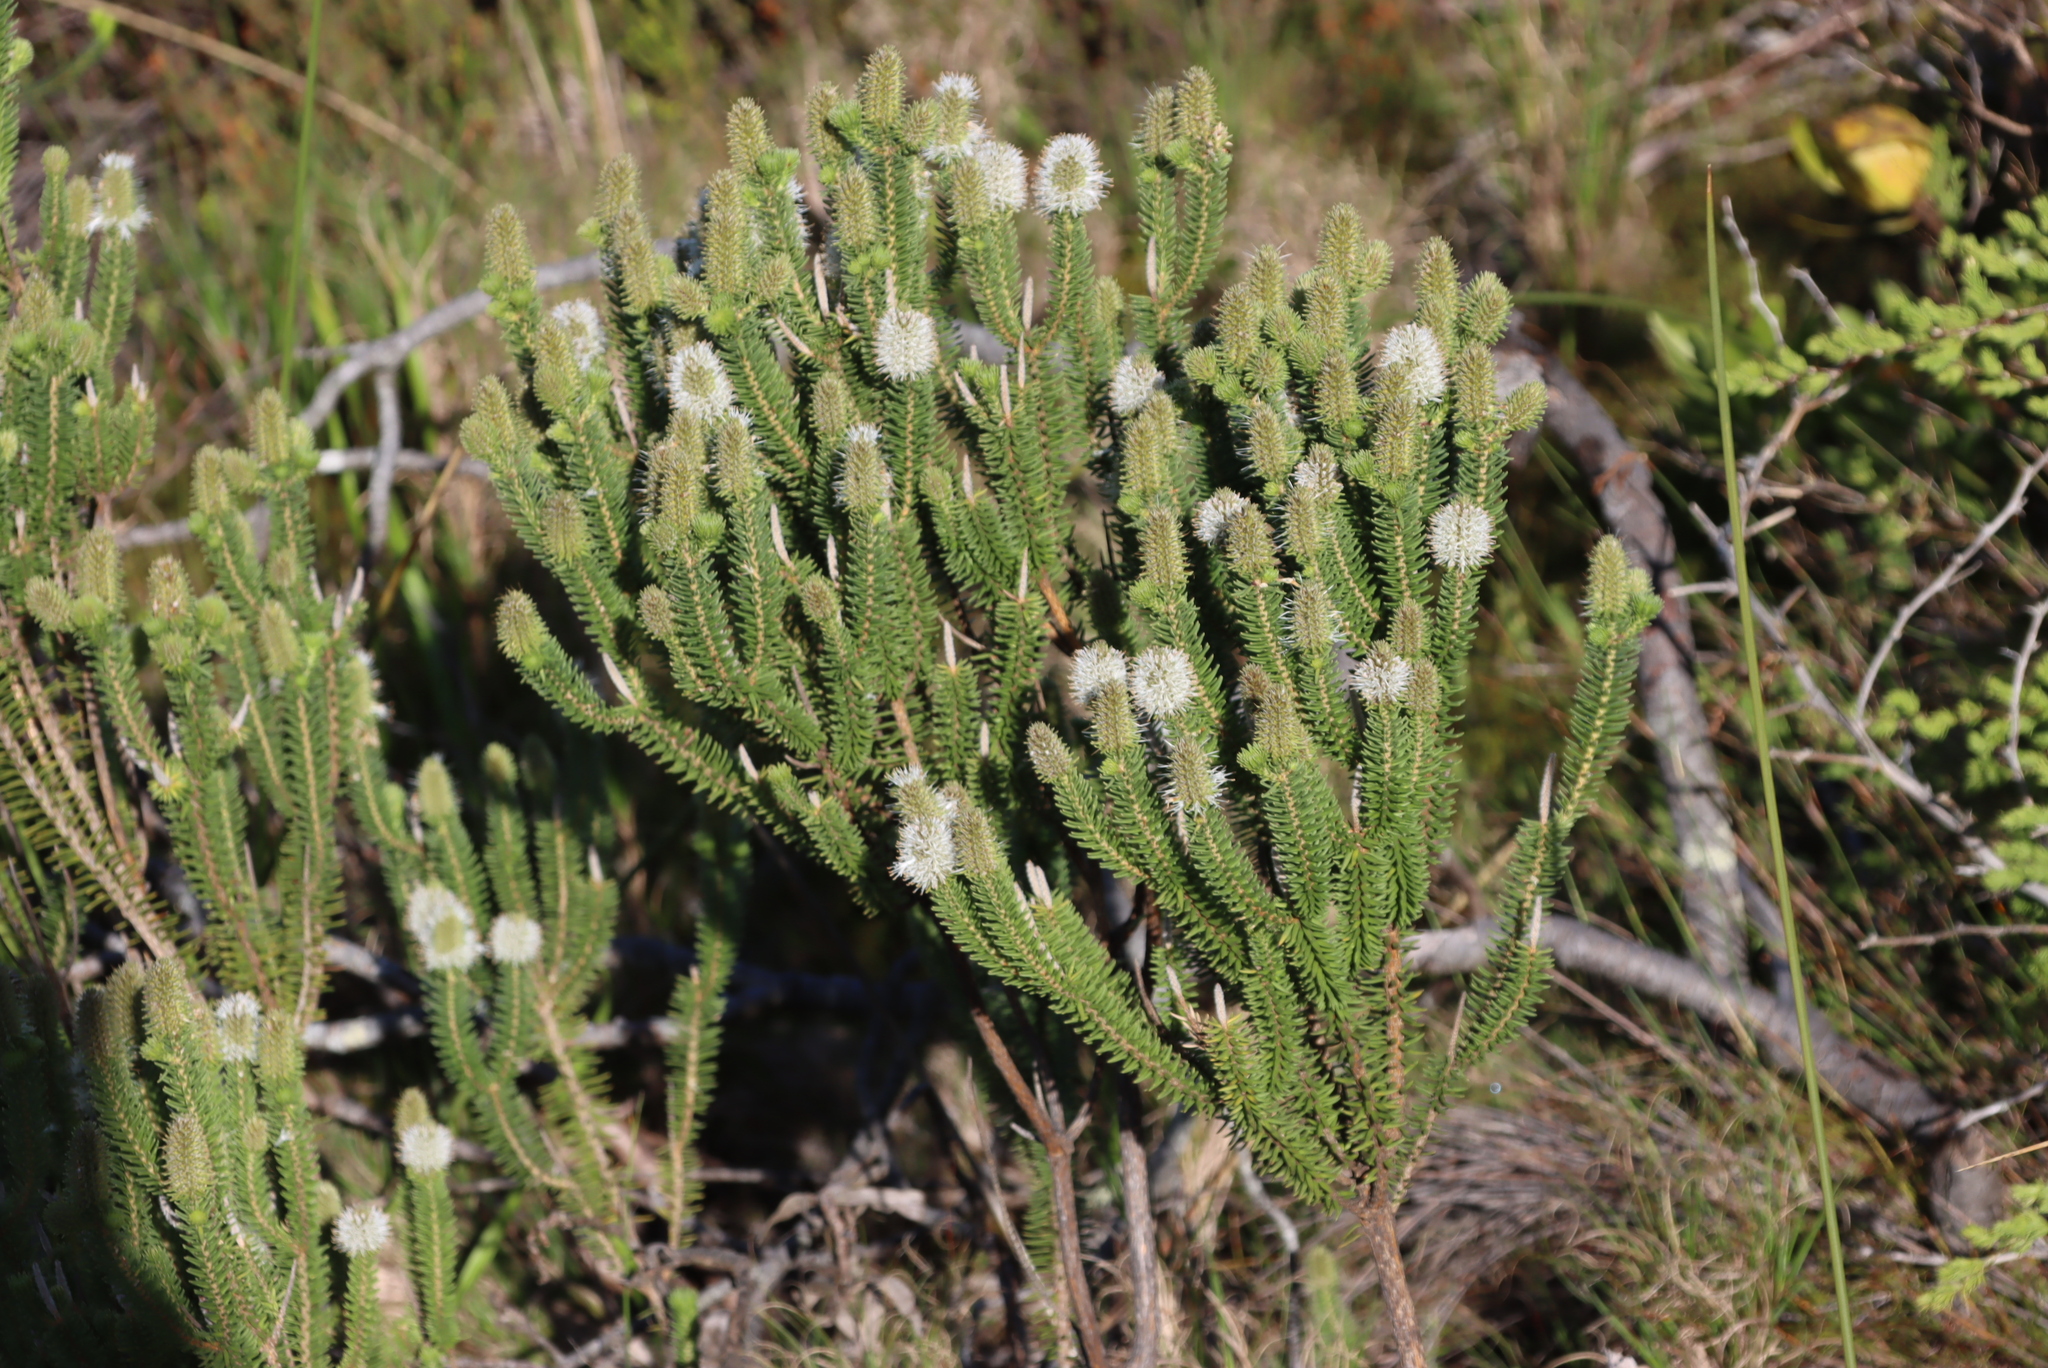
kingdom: Plantae
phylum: Tracheophyta
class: Magnoliopsida
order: Lamiales
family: Stilbaceae
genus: Stilbe
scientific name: Stilbe vestita
